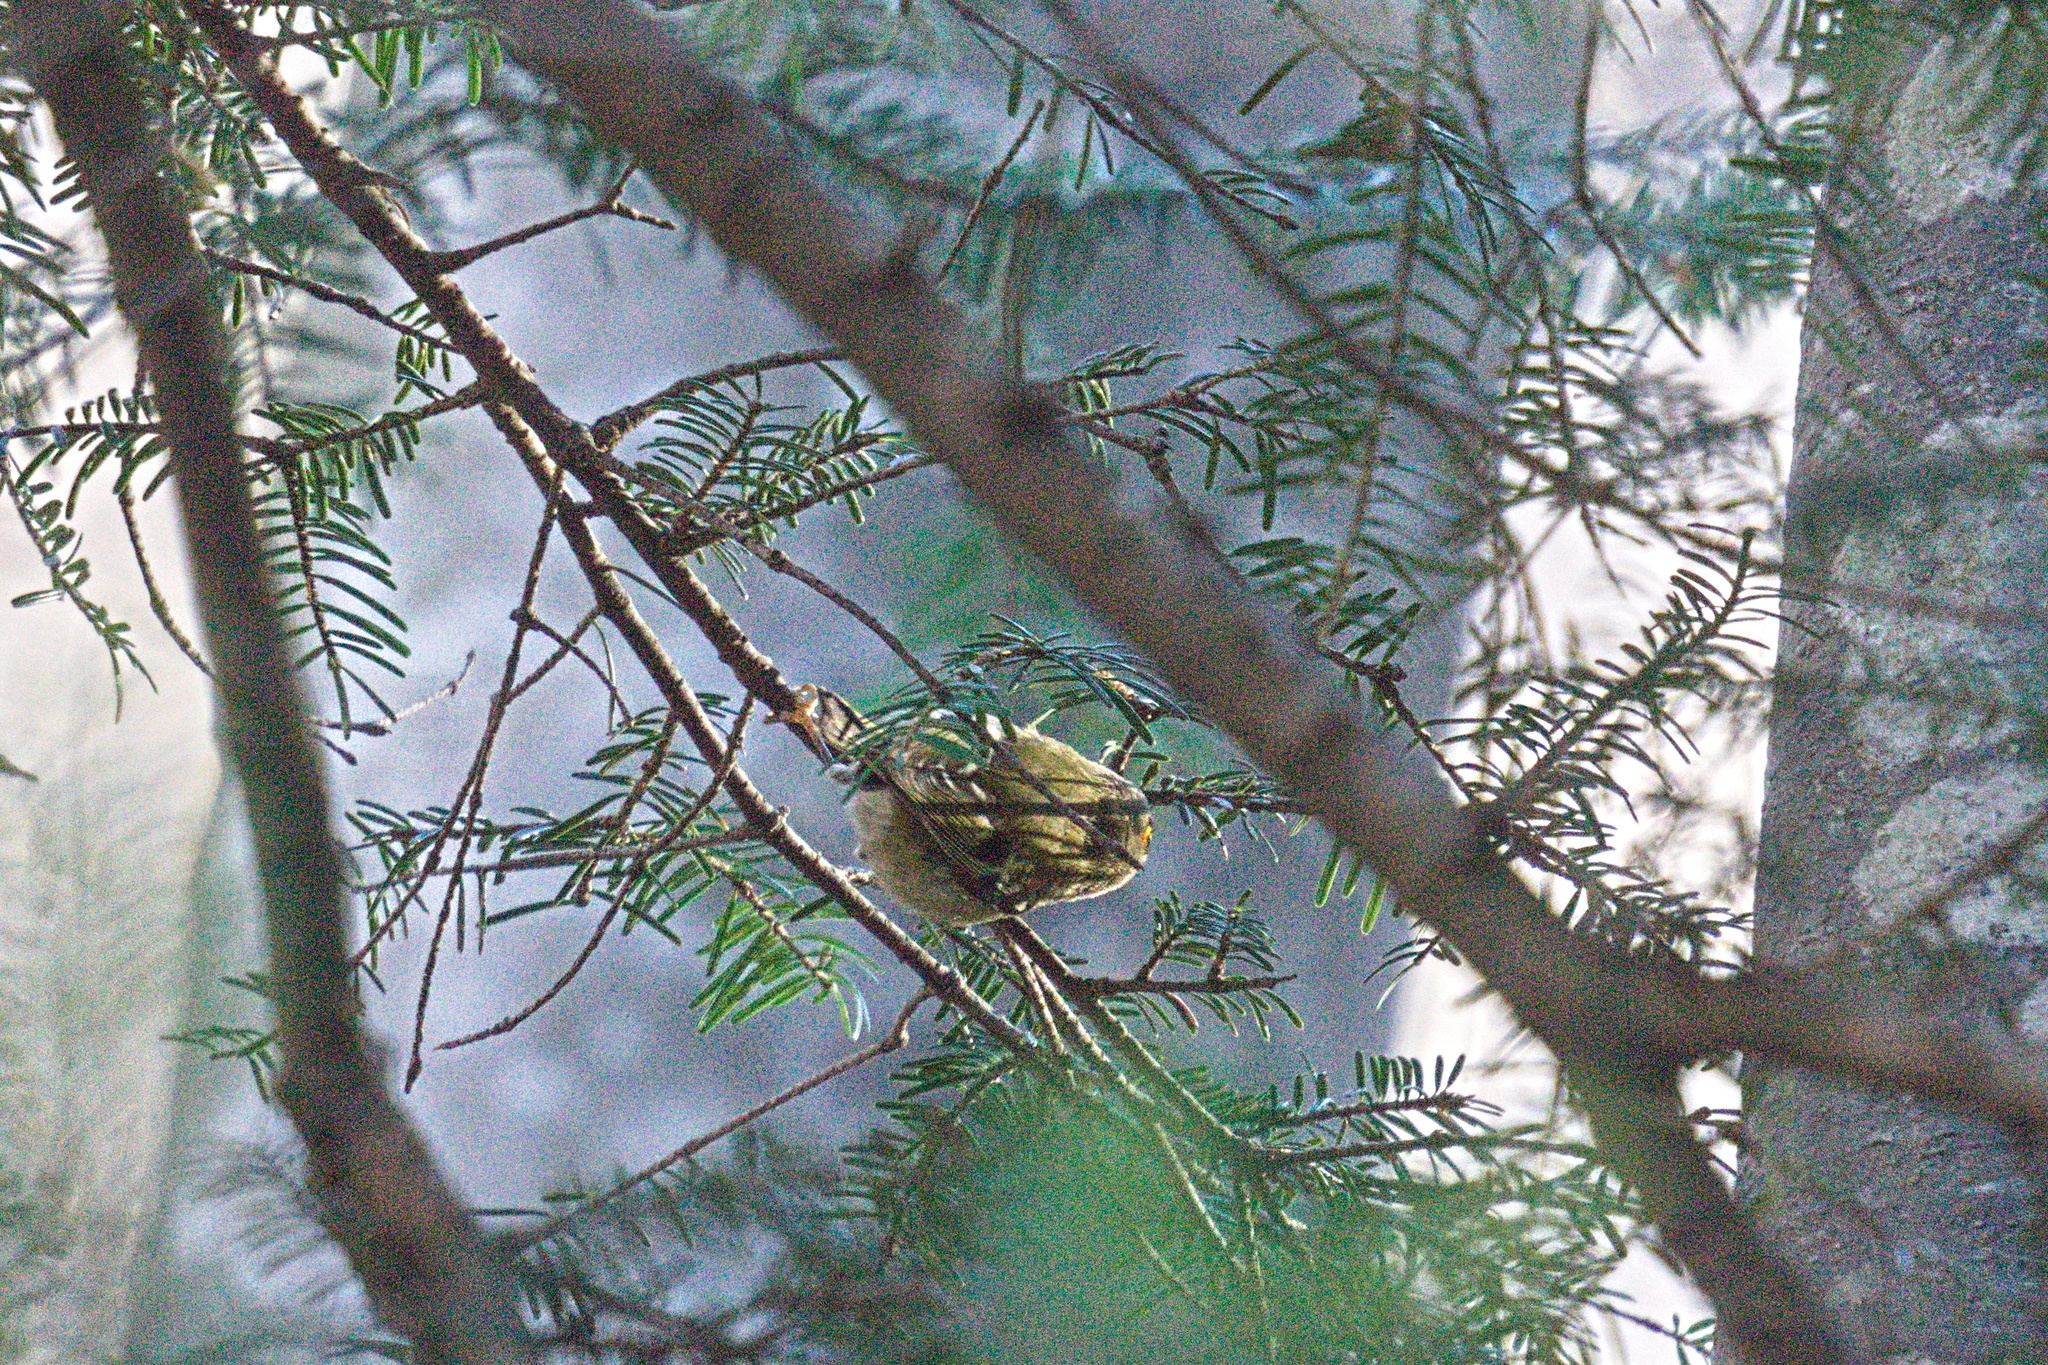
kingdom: Animalia
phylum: Chordata
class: Aves
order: Passeriformes
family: Regulidae
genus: Regulus
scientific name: Regulus regulus
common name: Goldcrest
